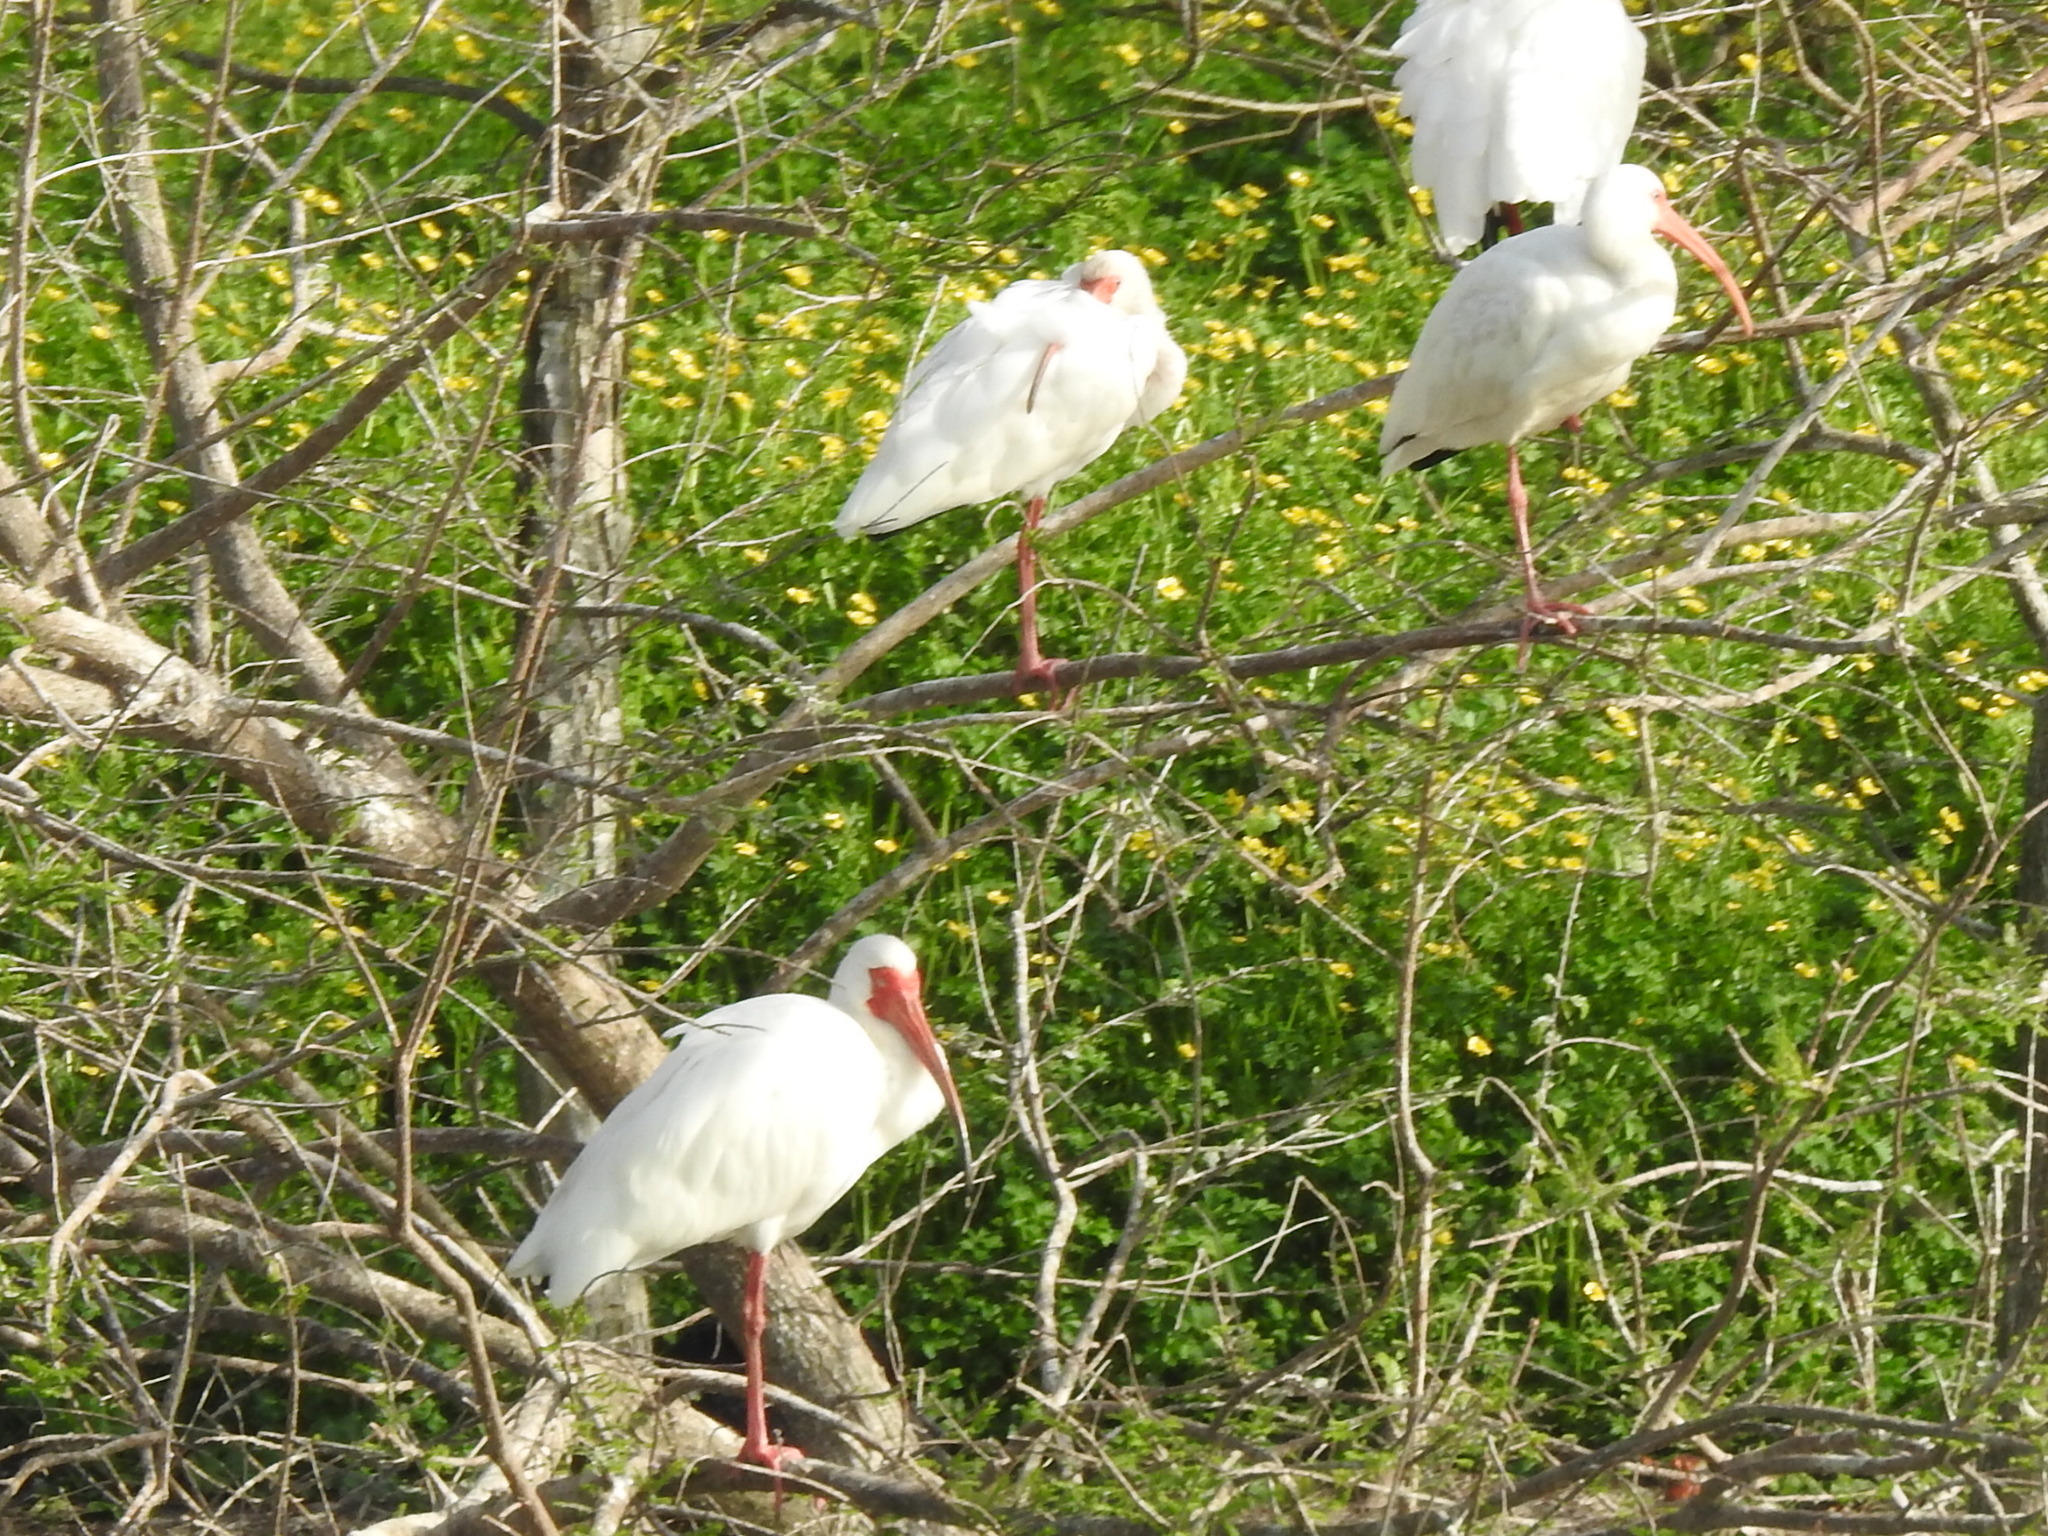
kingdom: Animalia
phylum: Chordata
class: Aves
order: Pelecaniformes
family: Threskiornithidae
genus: Eudocimus
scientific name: Eudocimus albus
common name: White ibis
